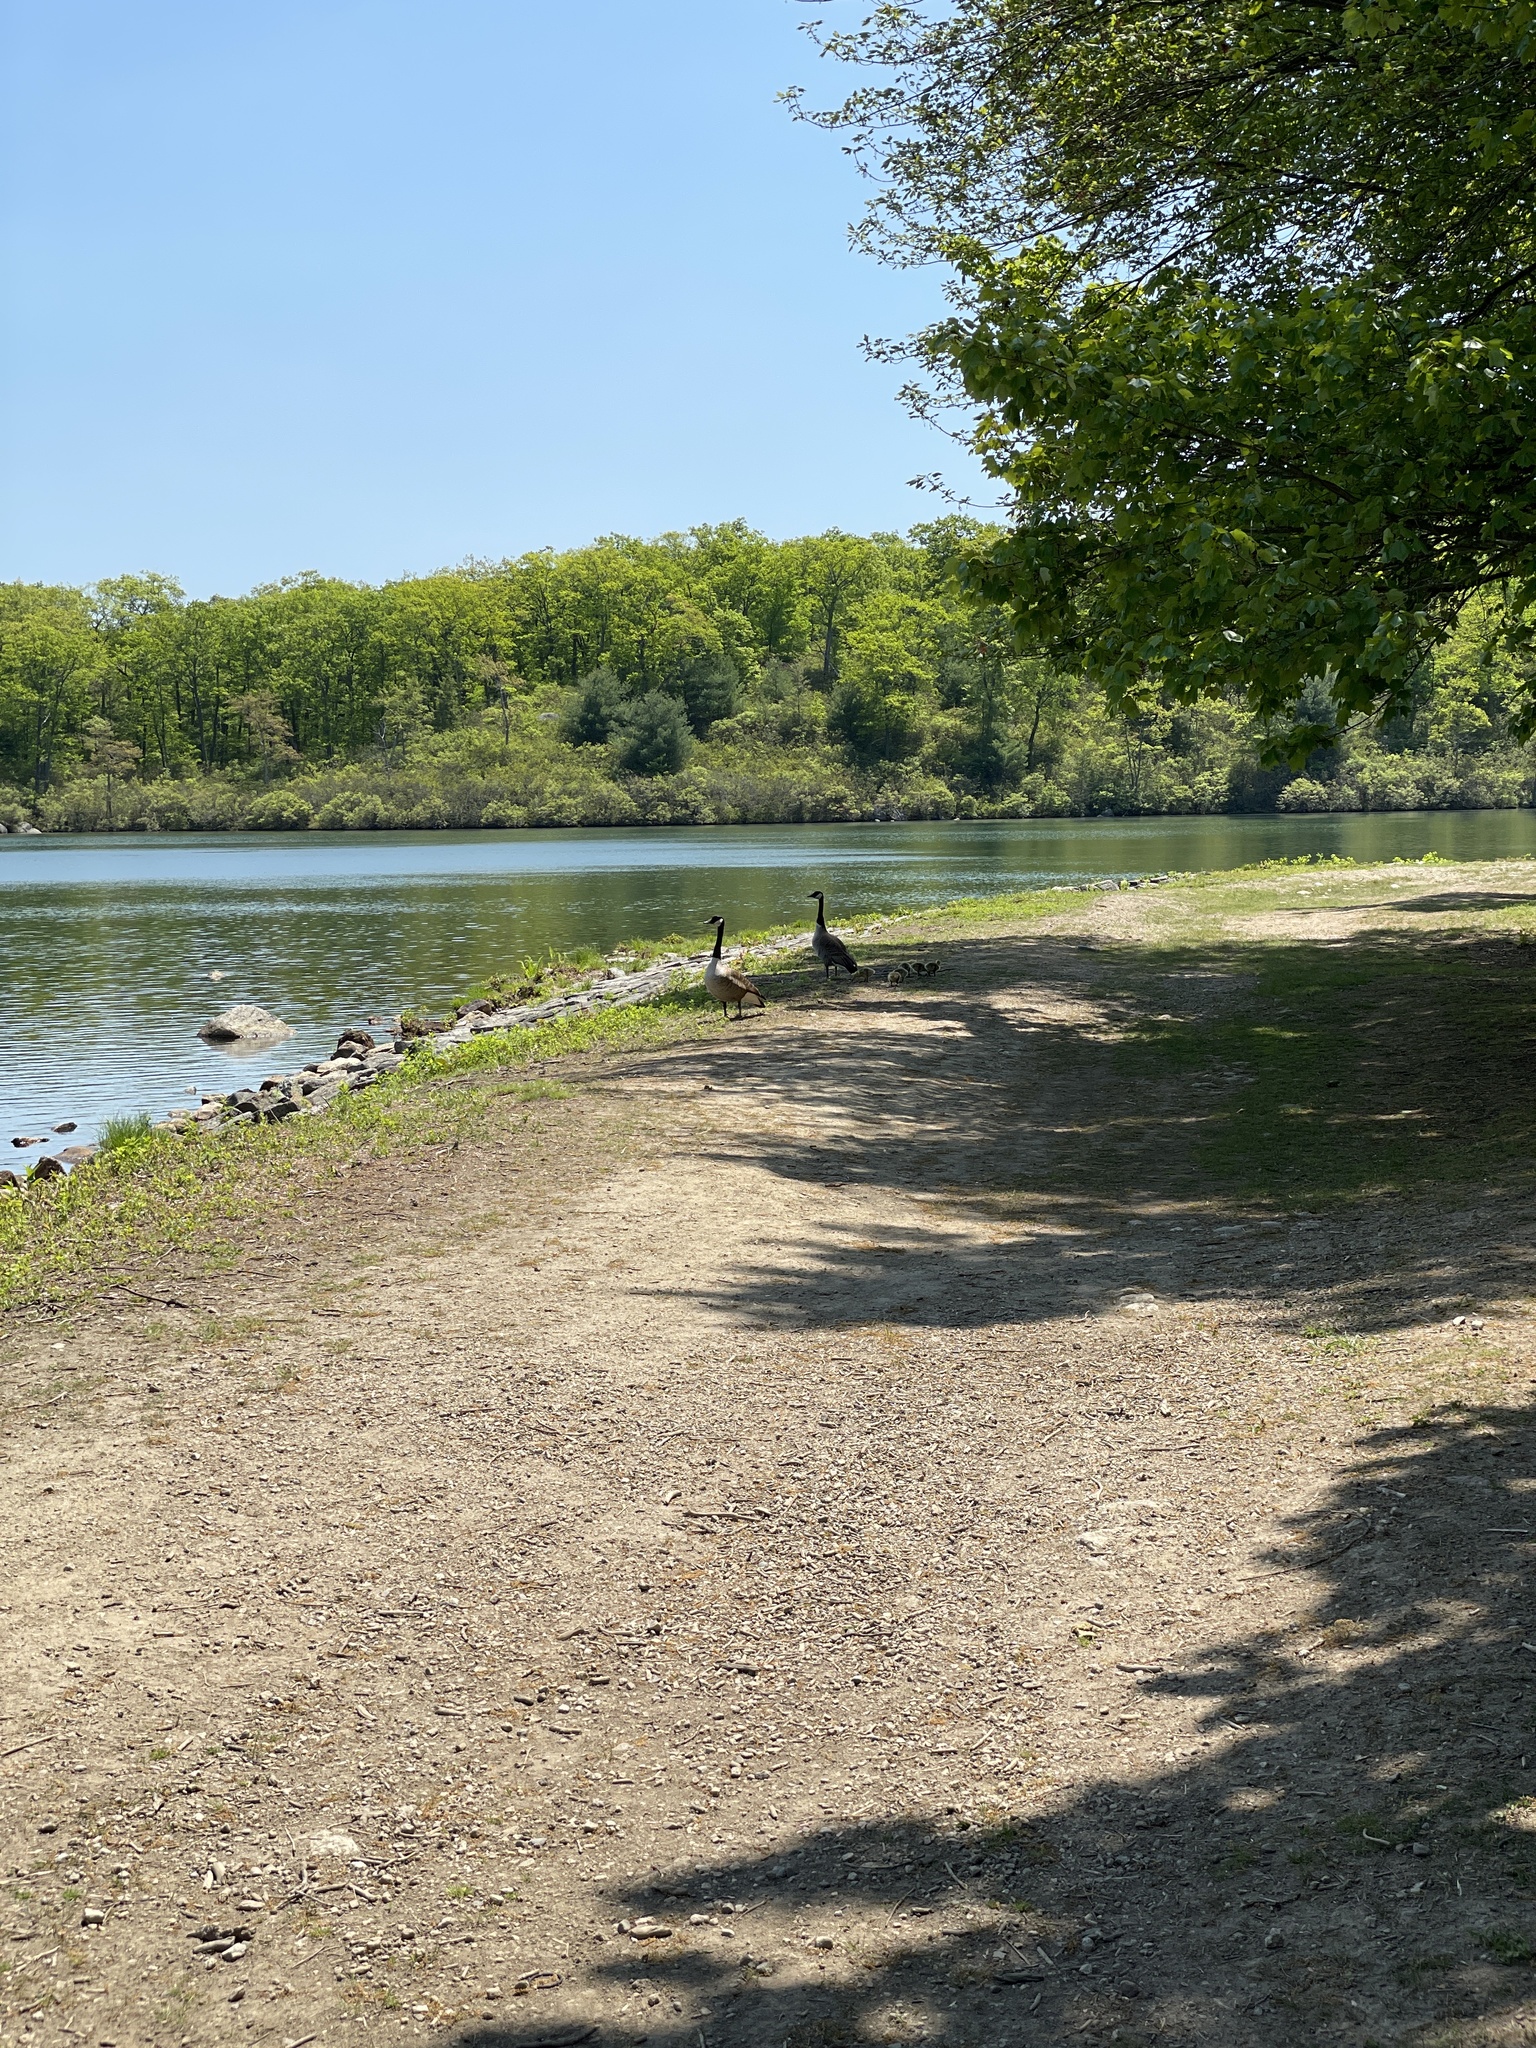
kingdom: Animalia
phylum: Chordata
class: Aves
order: Anseriformes
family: Anatidae
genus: Branta
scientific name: Branta canadensis
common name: Canada goose
